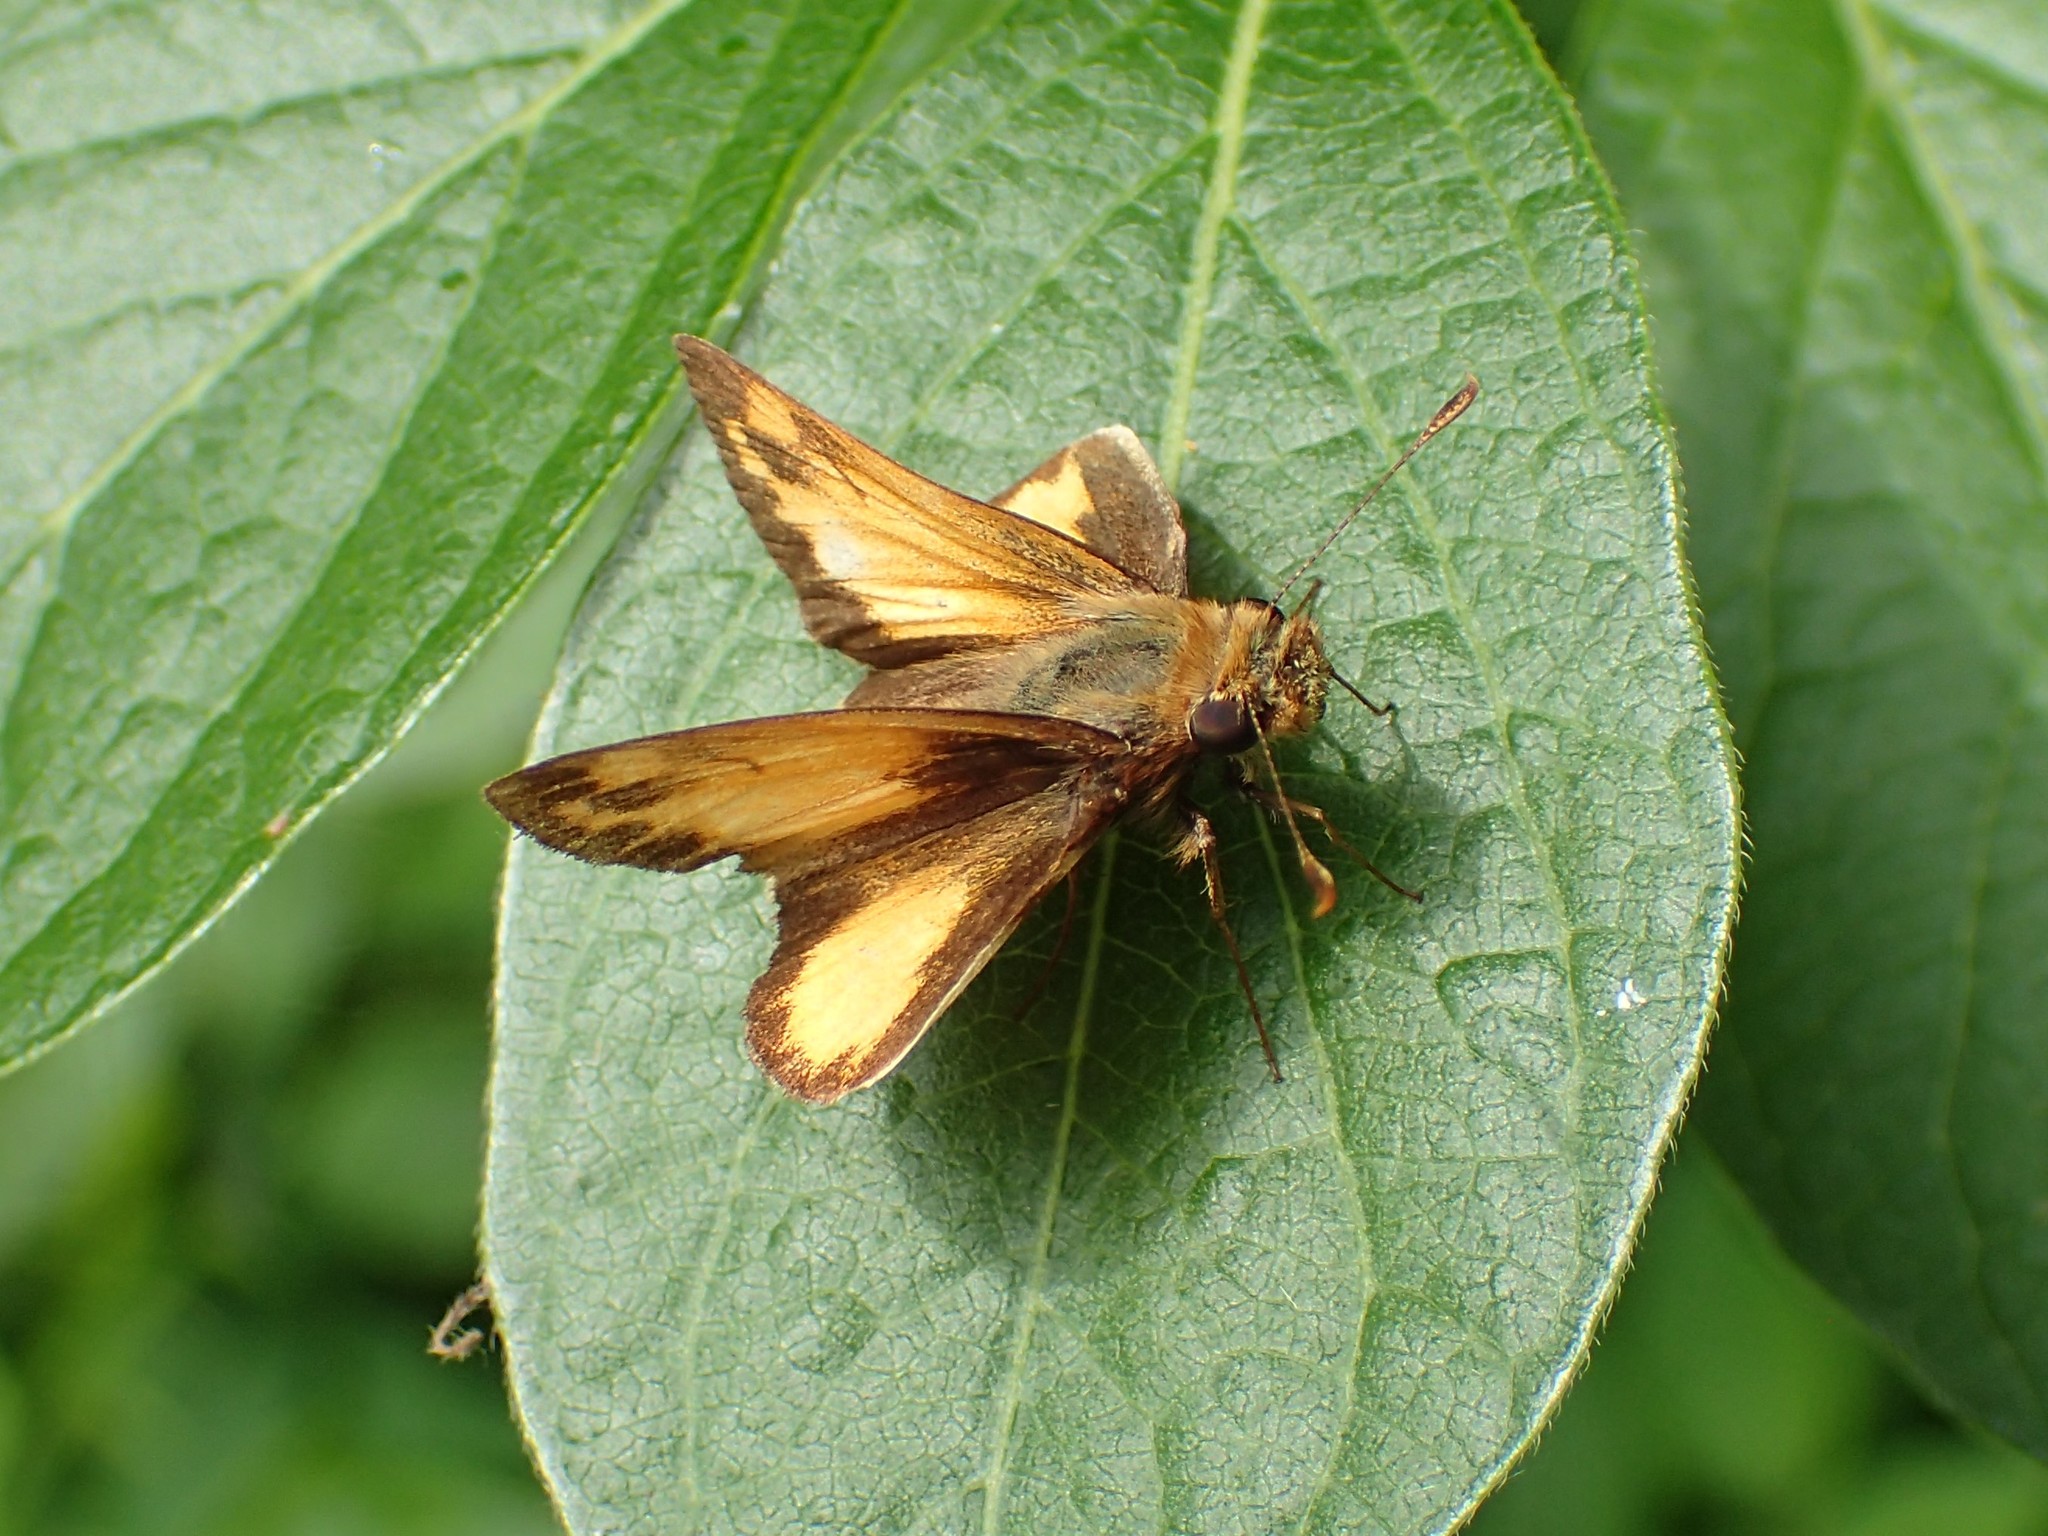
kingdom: Animalia
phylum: Arthropoda
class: Insecta
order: Lepidoptera
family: Hesperiidae
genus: Lon
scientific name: Lon zabulon
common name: Zabulon skipper
